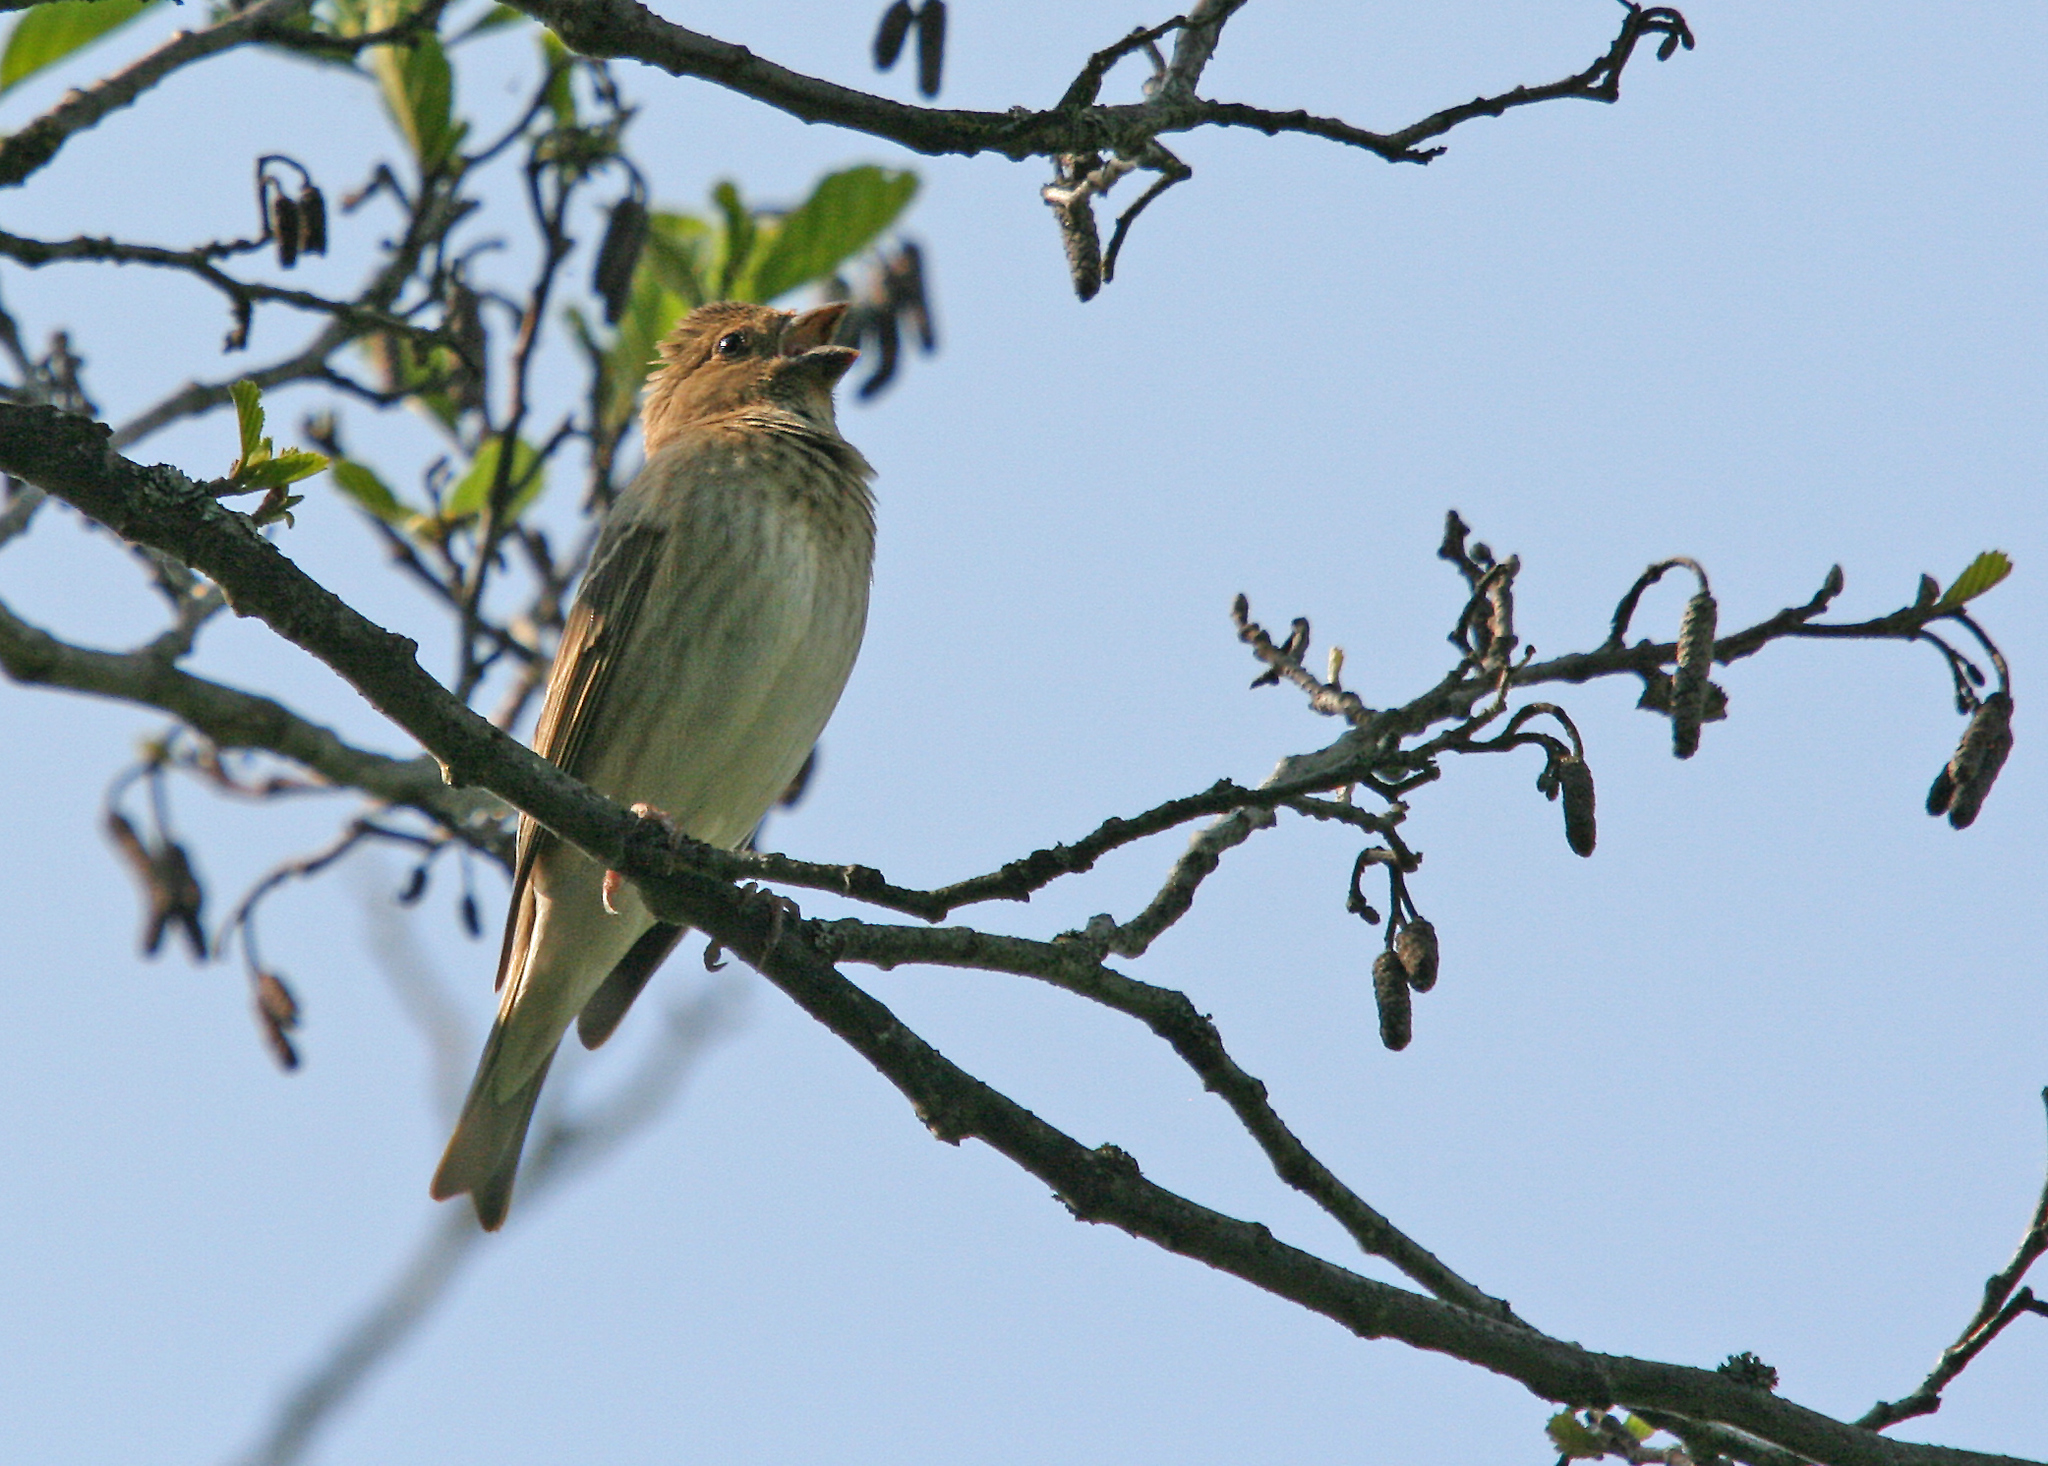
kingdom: Animalia
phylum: Chordata
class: Aves
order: Passeriformes
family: Fringillidae
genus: Carpodacus
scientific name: Carpodacus erythrinus
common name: Common rosefinch
